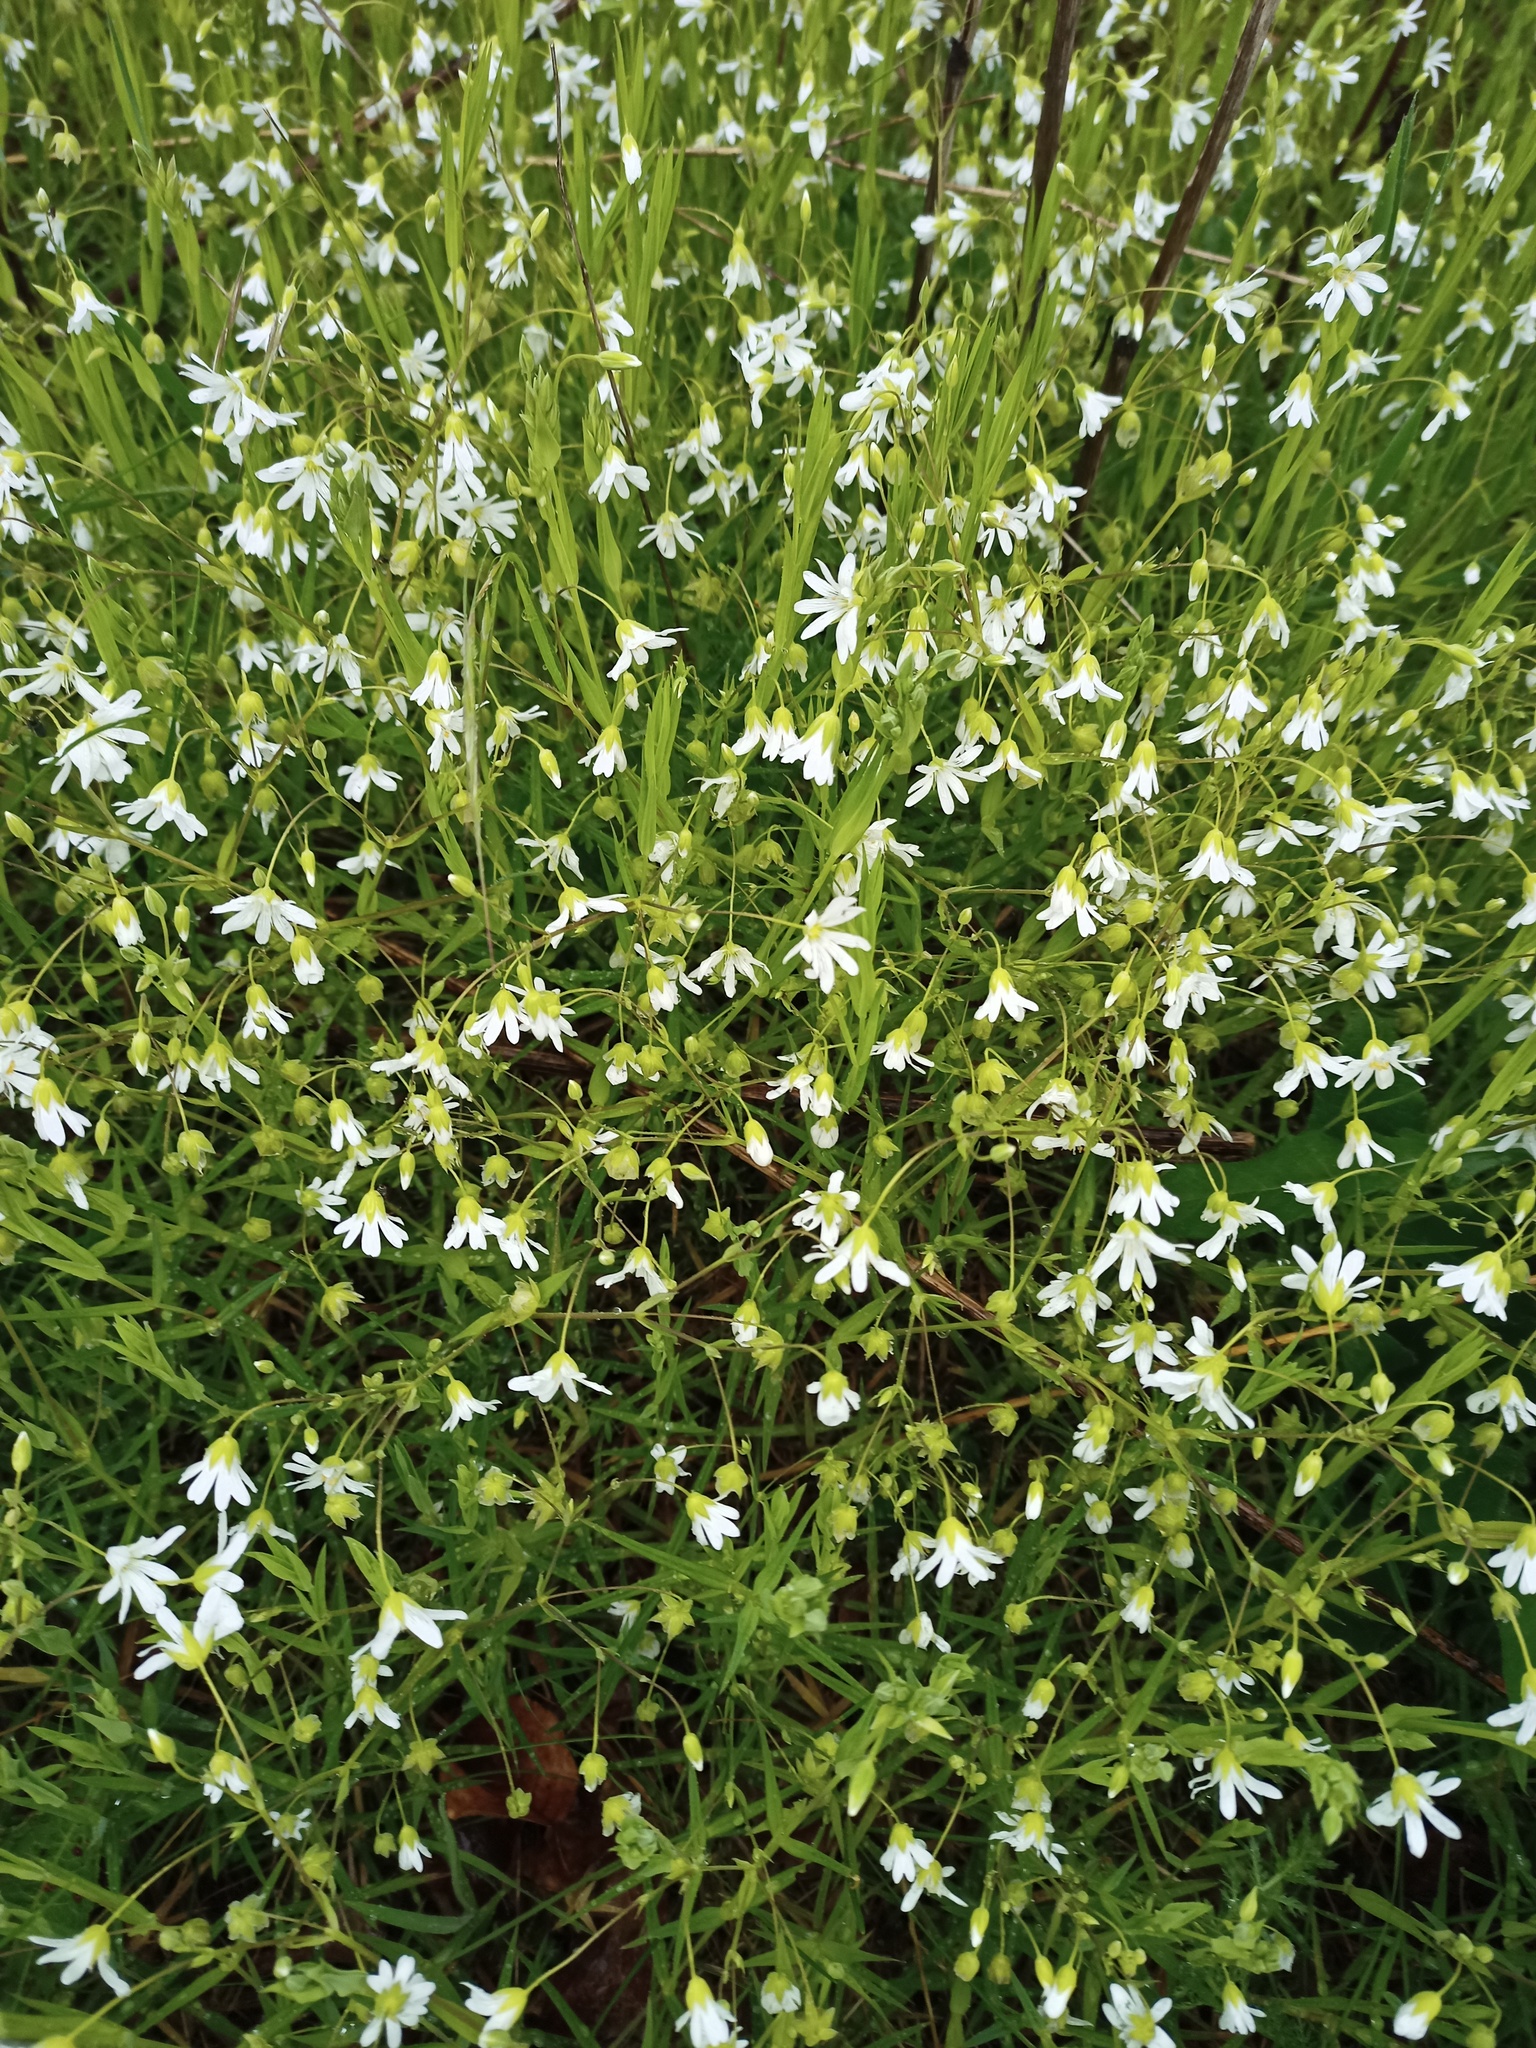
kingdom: Plantae
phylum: Tracheophyta
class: Magnoliopsida
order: Caryophyllales
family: Caryophyllaceae
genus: Rabelera
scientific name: Rabelera holostea
